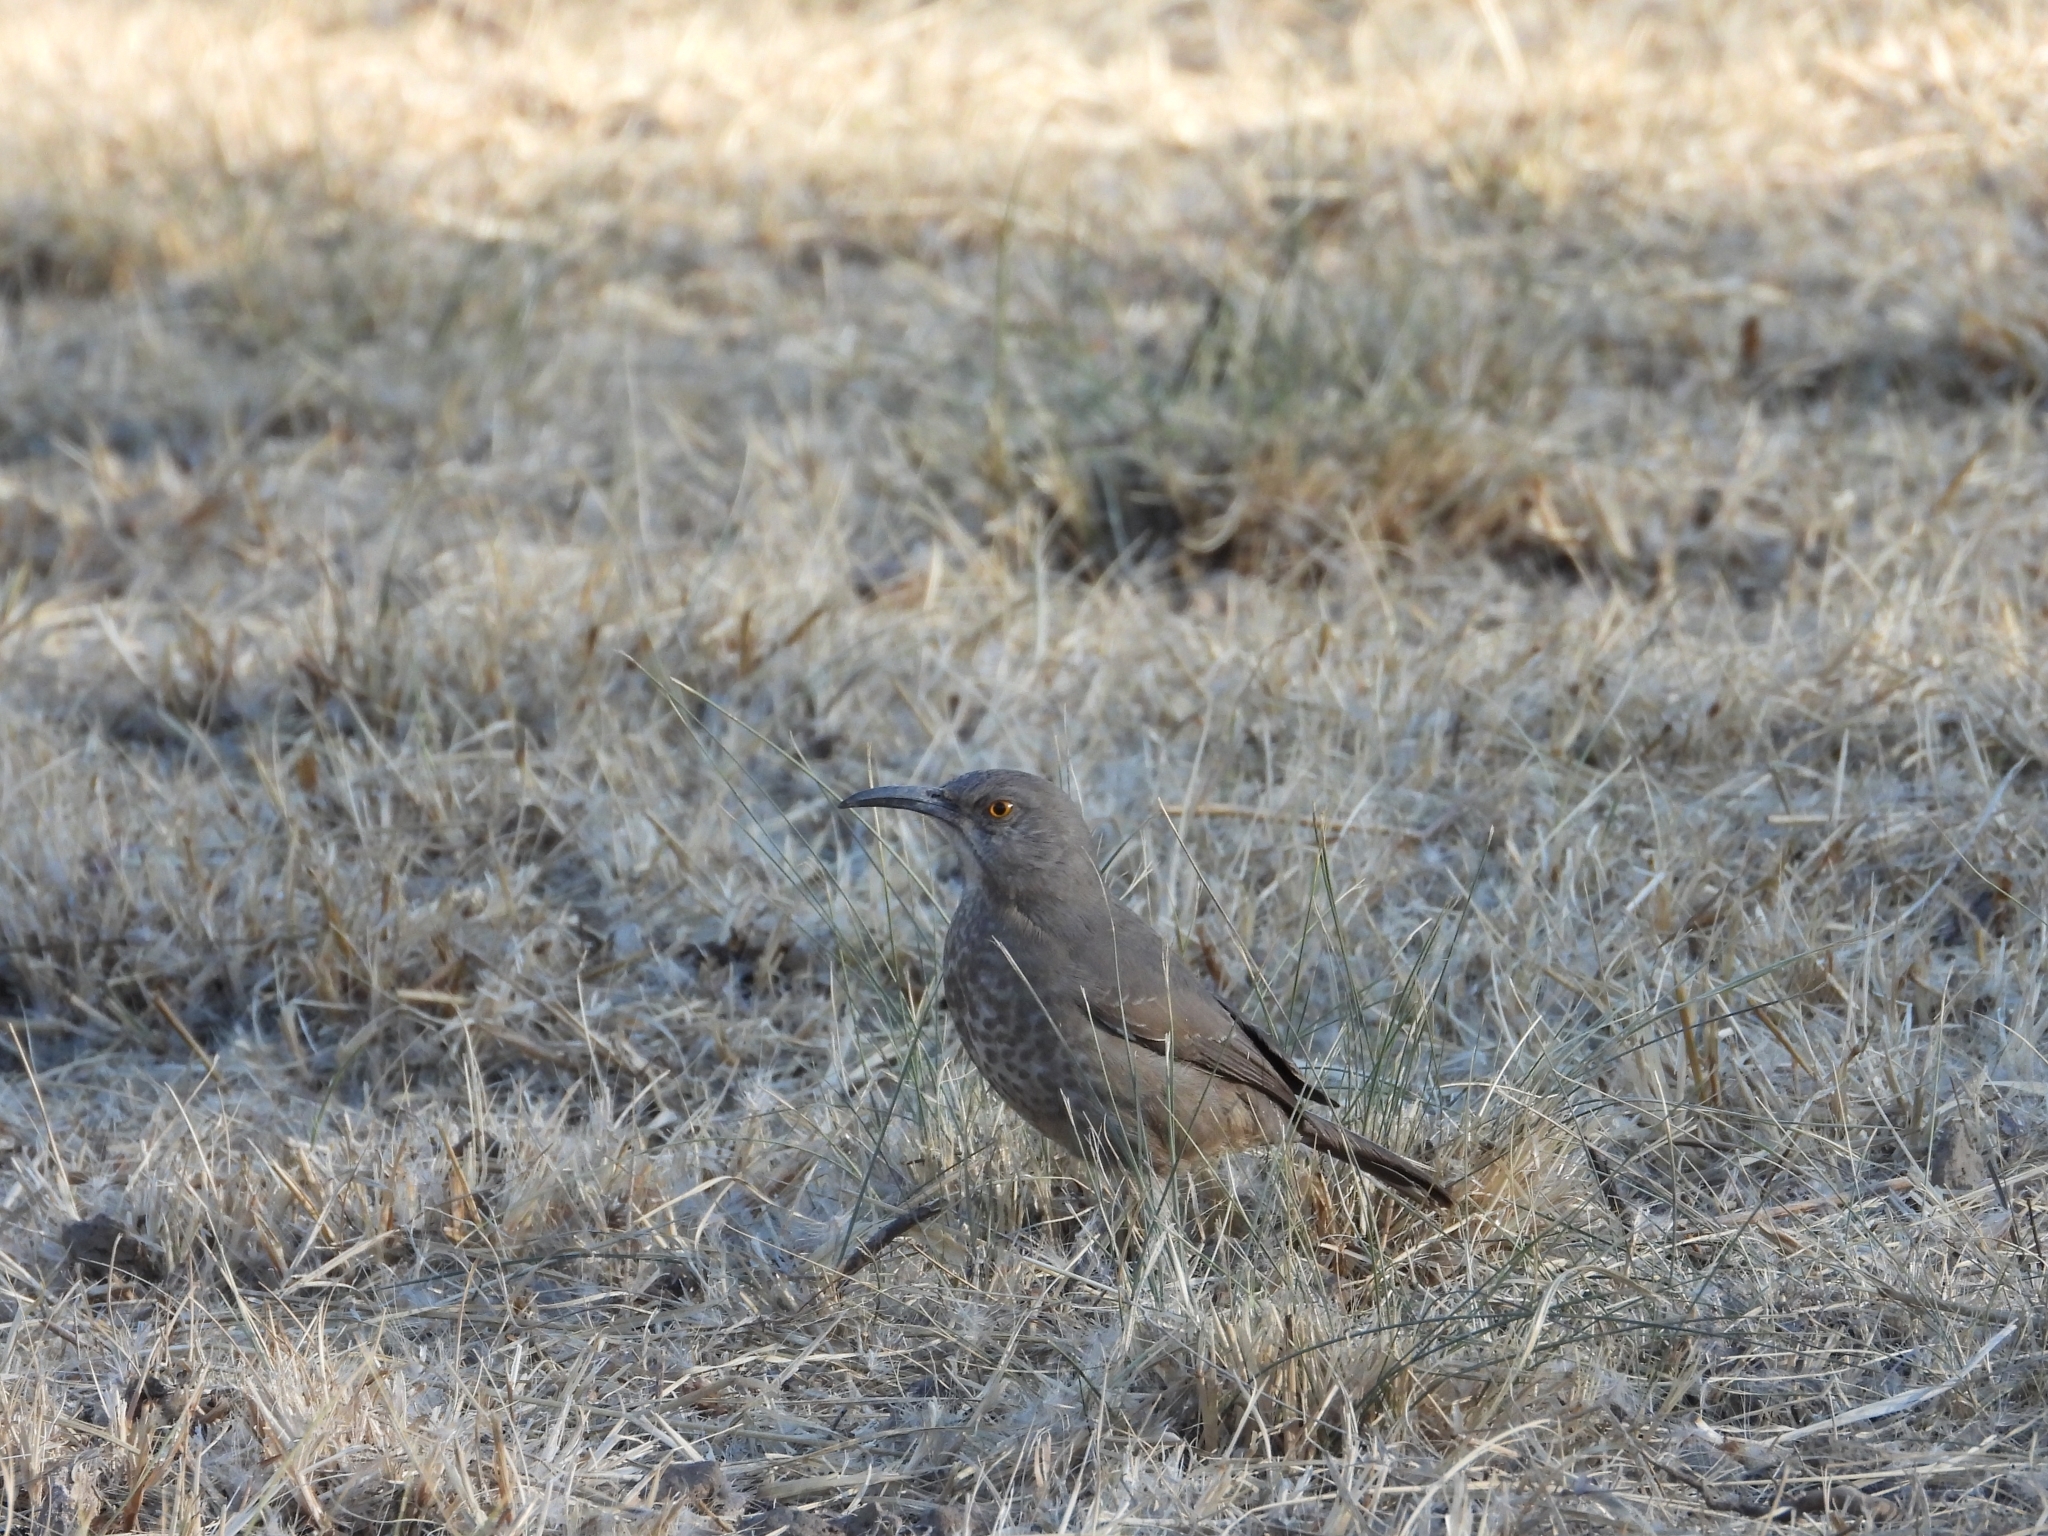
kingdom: Animalia
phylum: Chordata
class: Aves
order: Passeriformes
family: Mimidae
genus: Toxostoma
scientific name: Toxostoma curvirostre
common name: Curve-billed thrasher
